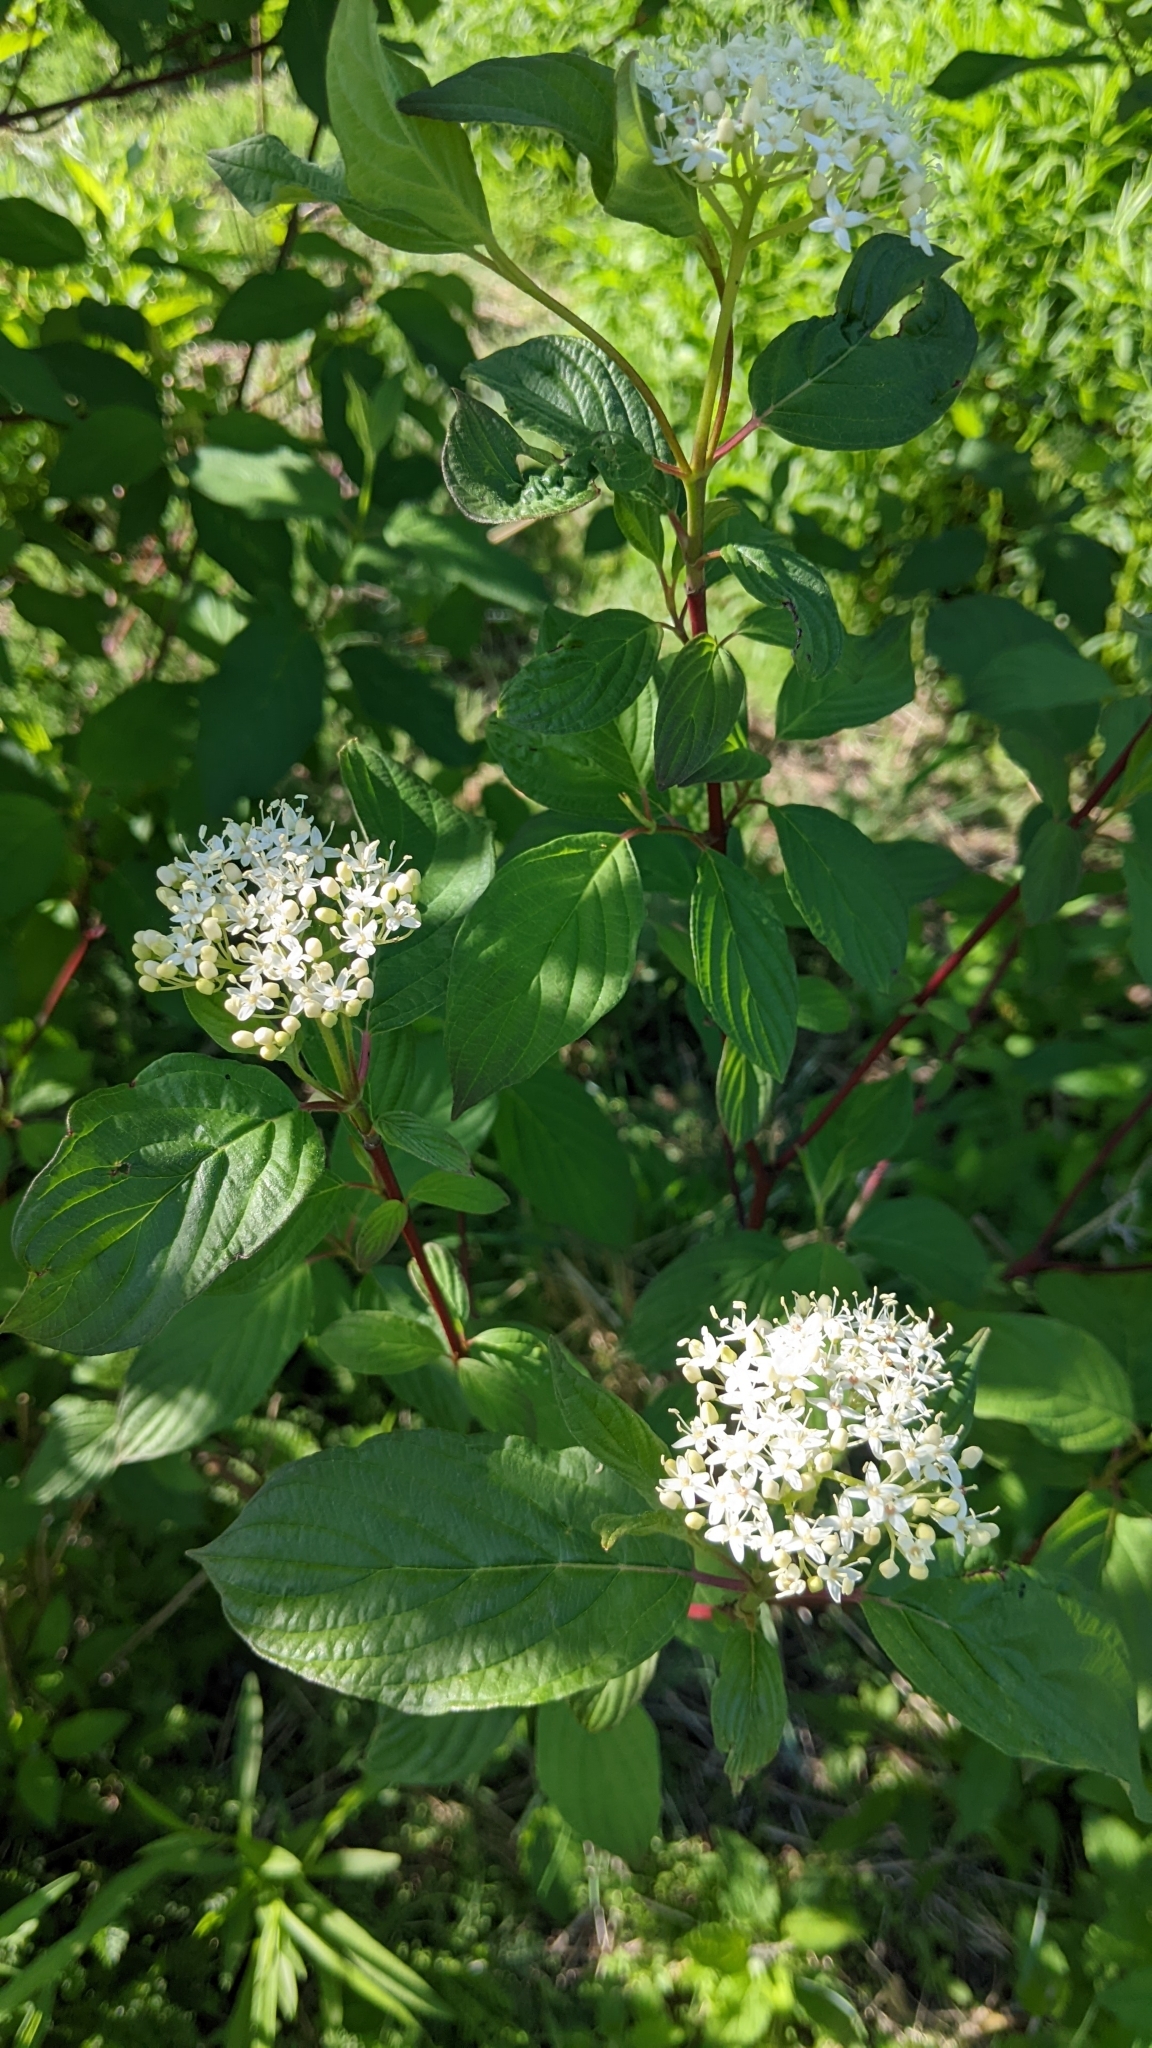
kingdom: Plantae
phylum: Tracheophyta
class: Magnoliopsida
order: Cornales
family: Cornaceae
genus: Cornus
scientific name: Cornus sericea
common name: Red-osier dogwood
